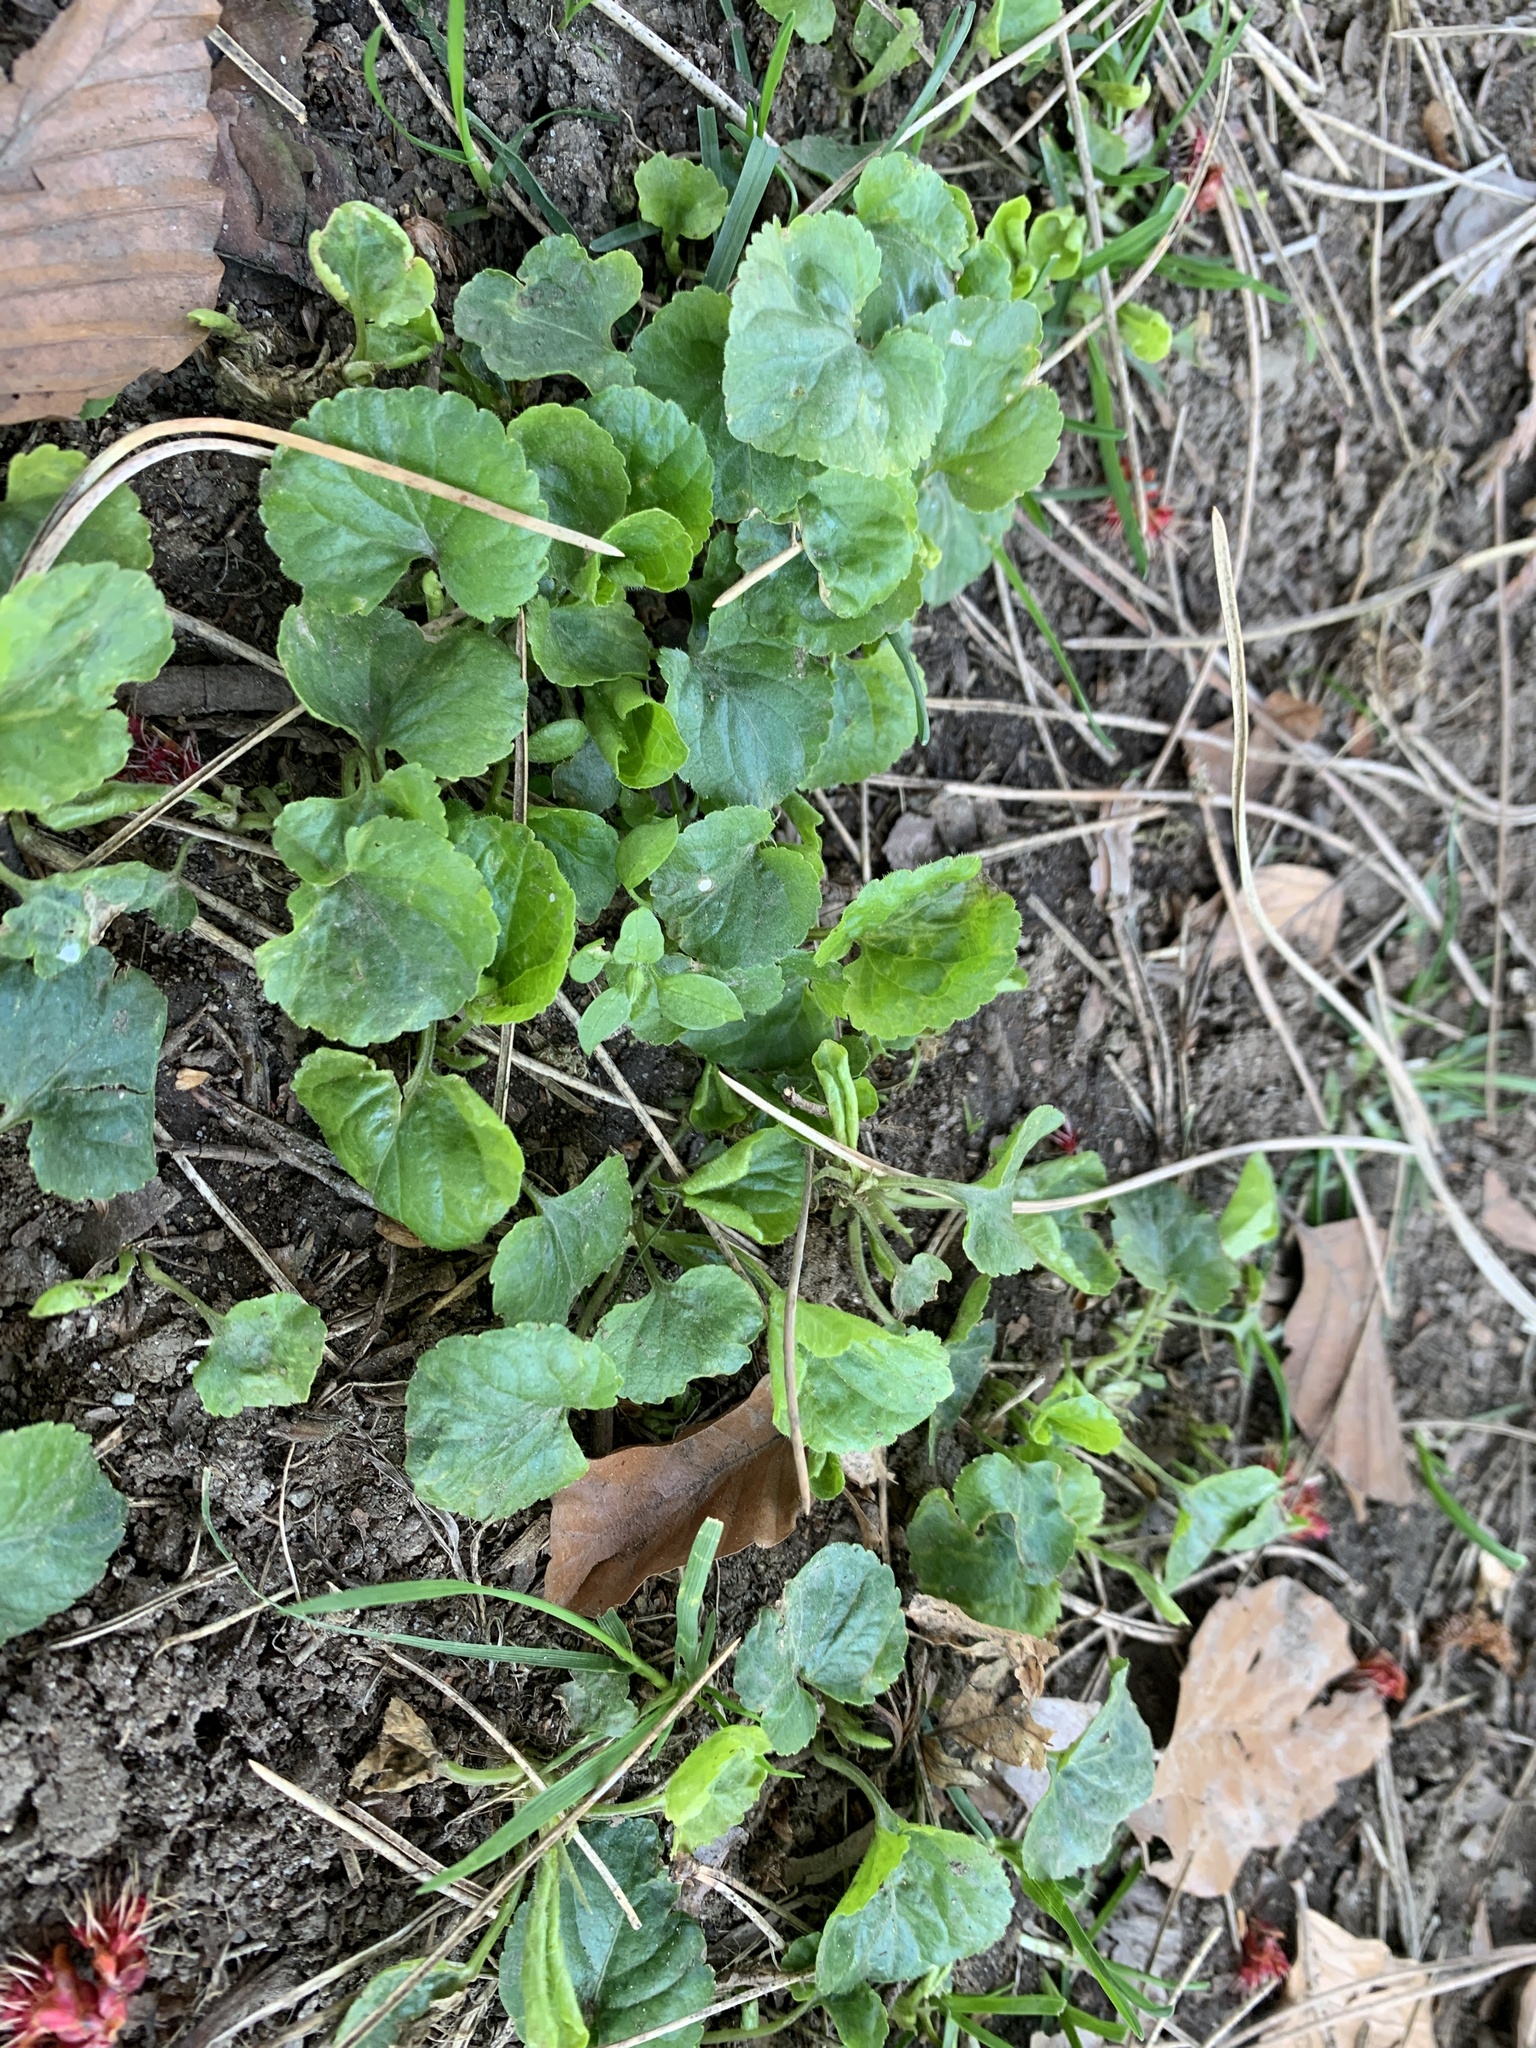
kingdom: Plantae
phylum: Tracheophyta
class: Magnoliopsida
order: Malpighiales
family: Violaceae
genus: Viola
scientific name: Viola odorata
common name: Sweet violet
